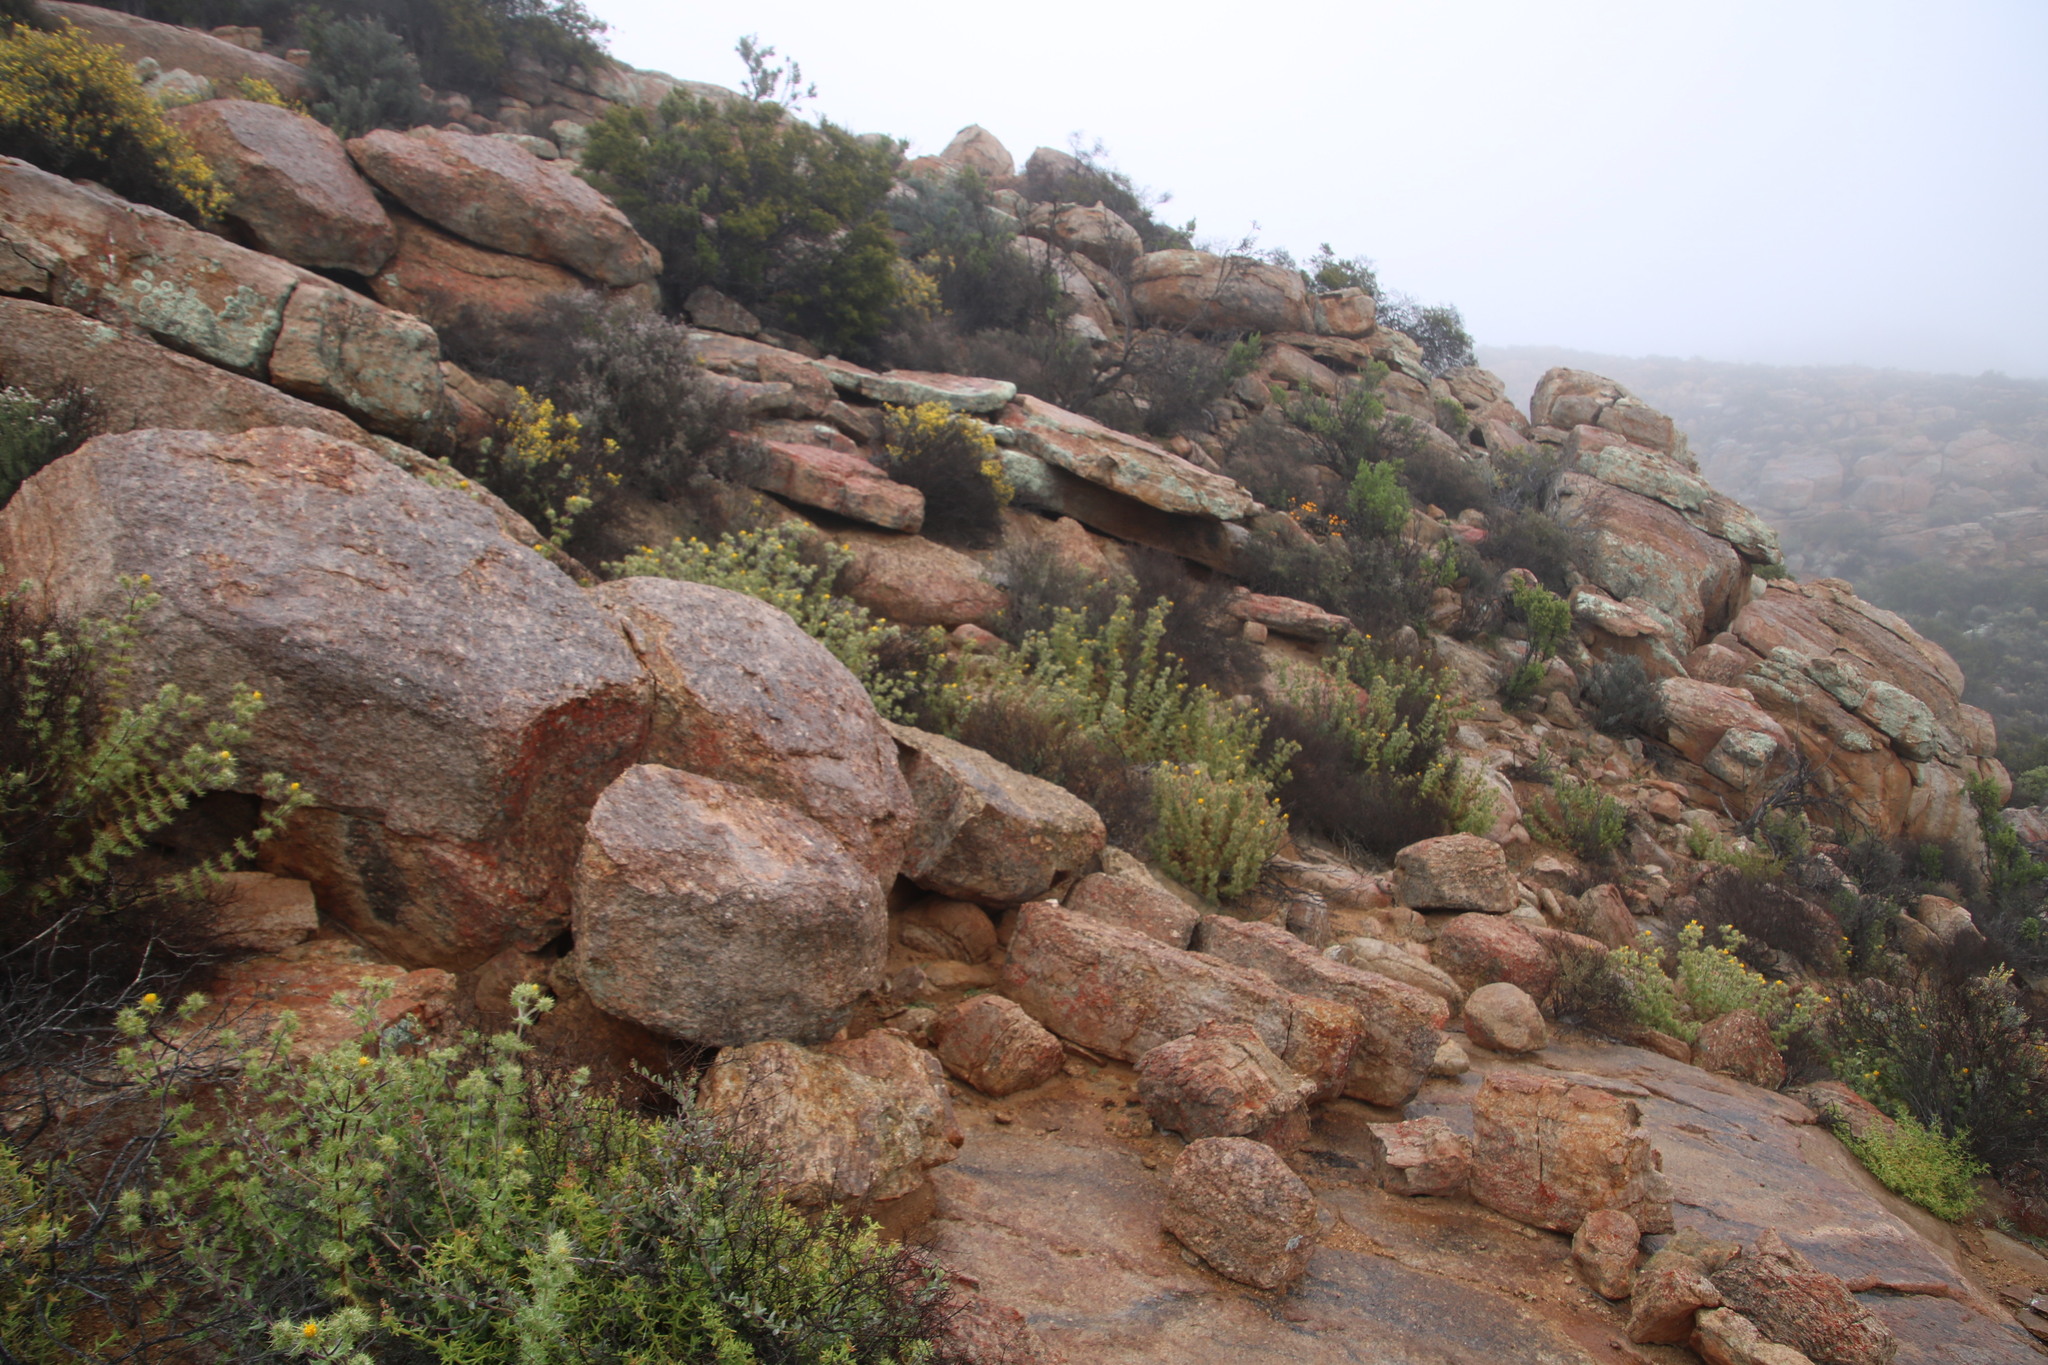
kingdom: Plantae
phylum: Tracheophyta
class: Magnoliopsida
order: Asterales
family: Asteraceae
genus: Berkheya
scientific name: Berkheya spinosissima
